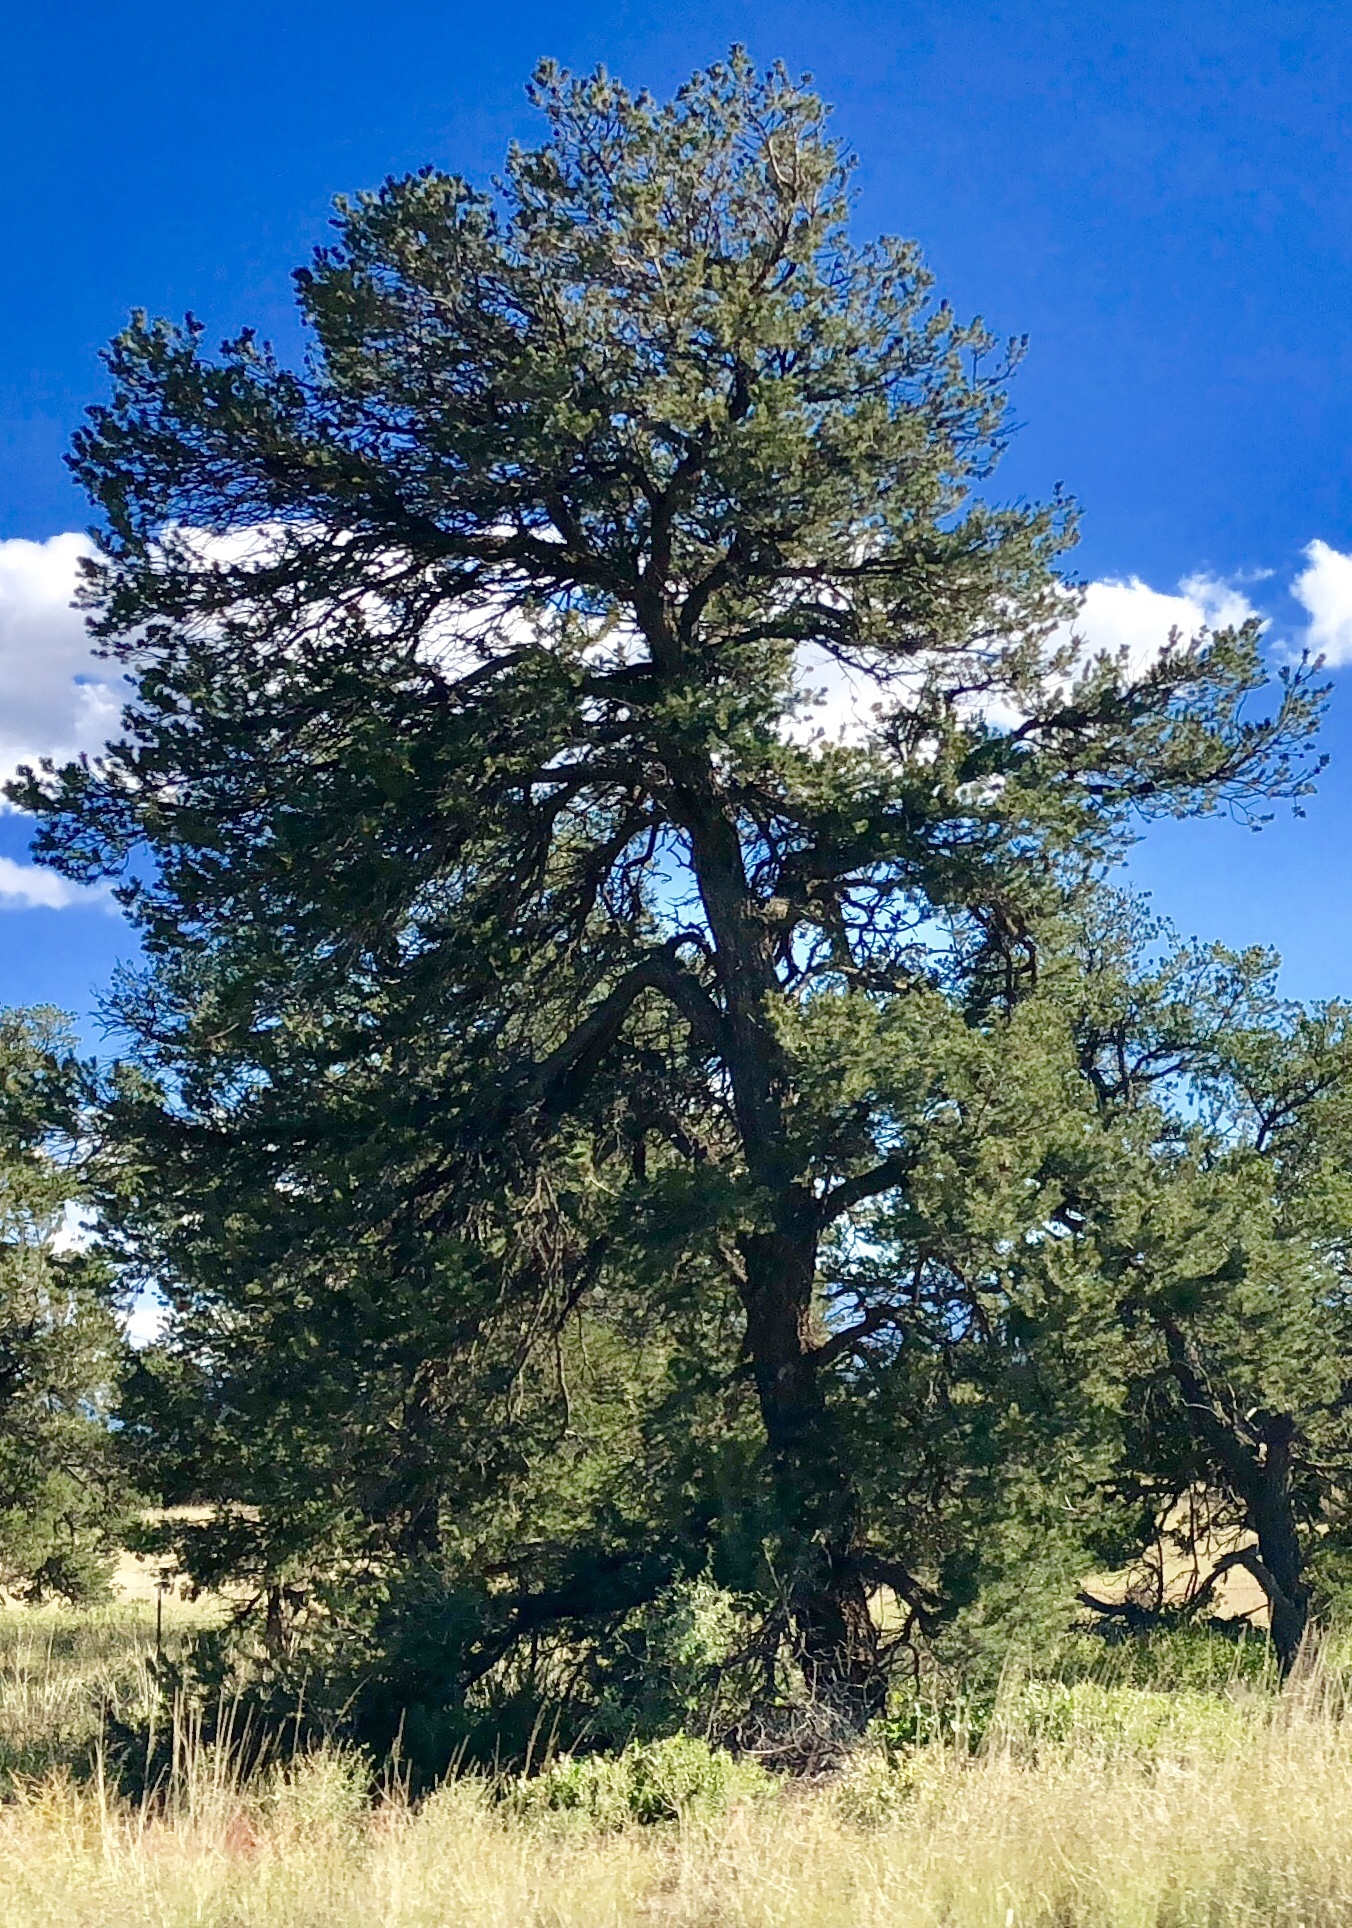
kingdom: Plantae
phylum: Tracheophyta
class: Pinopsida
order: Pinales
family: Pinaceae
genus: Pinus
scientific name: Pinus edulis
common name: Colorado pinyon
